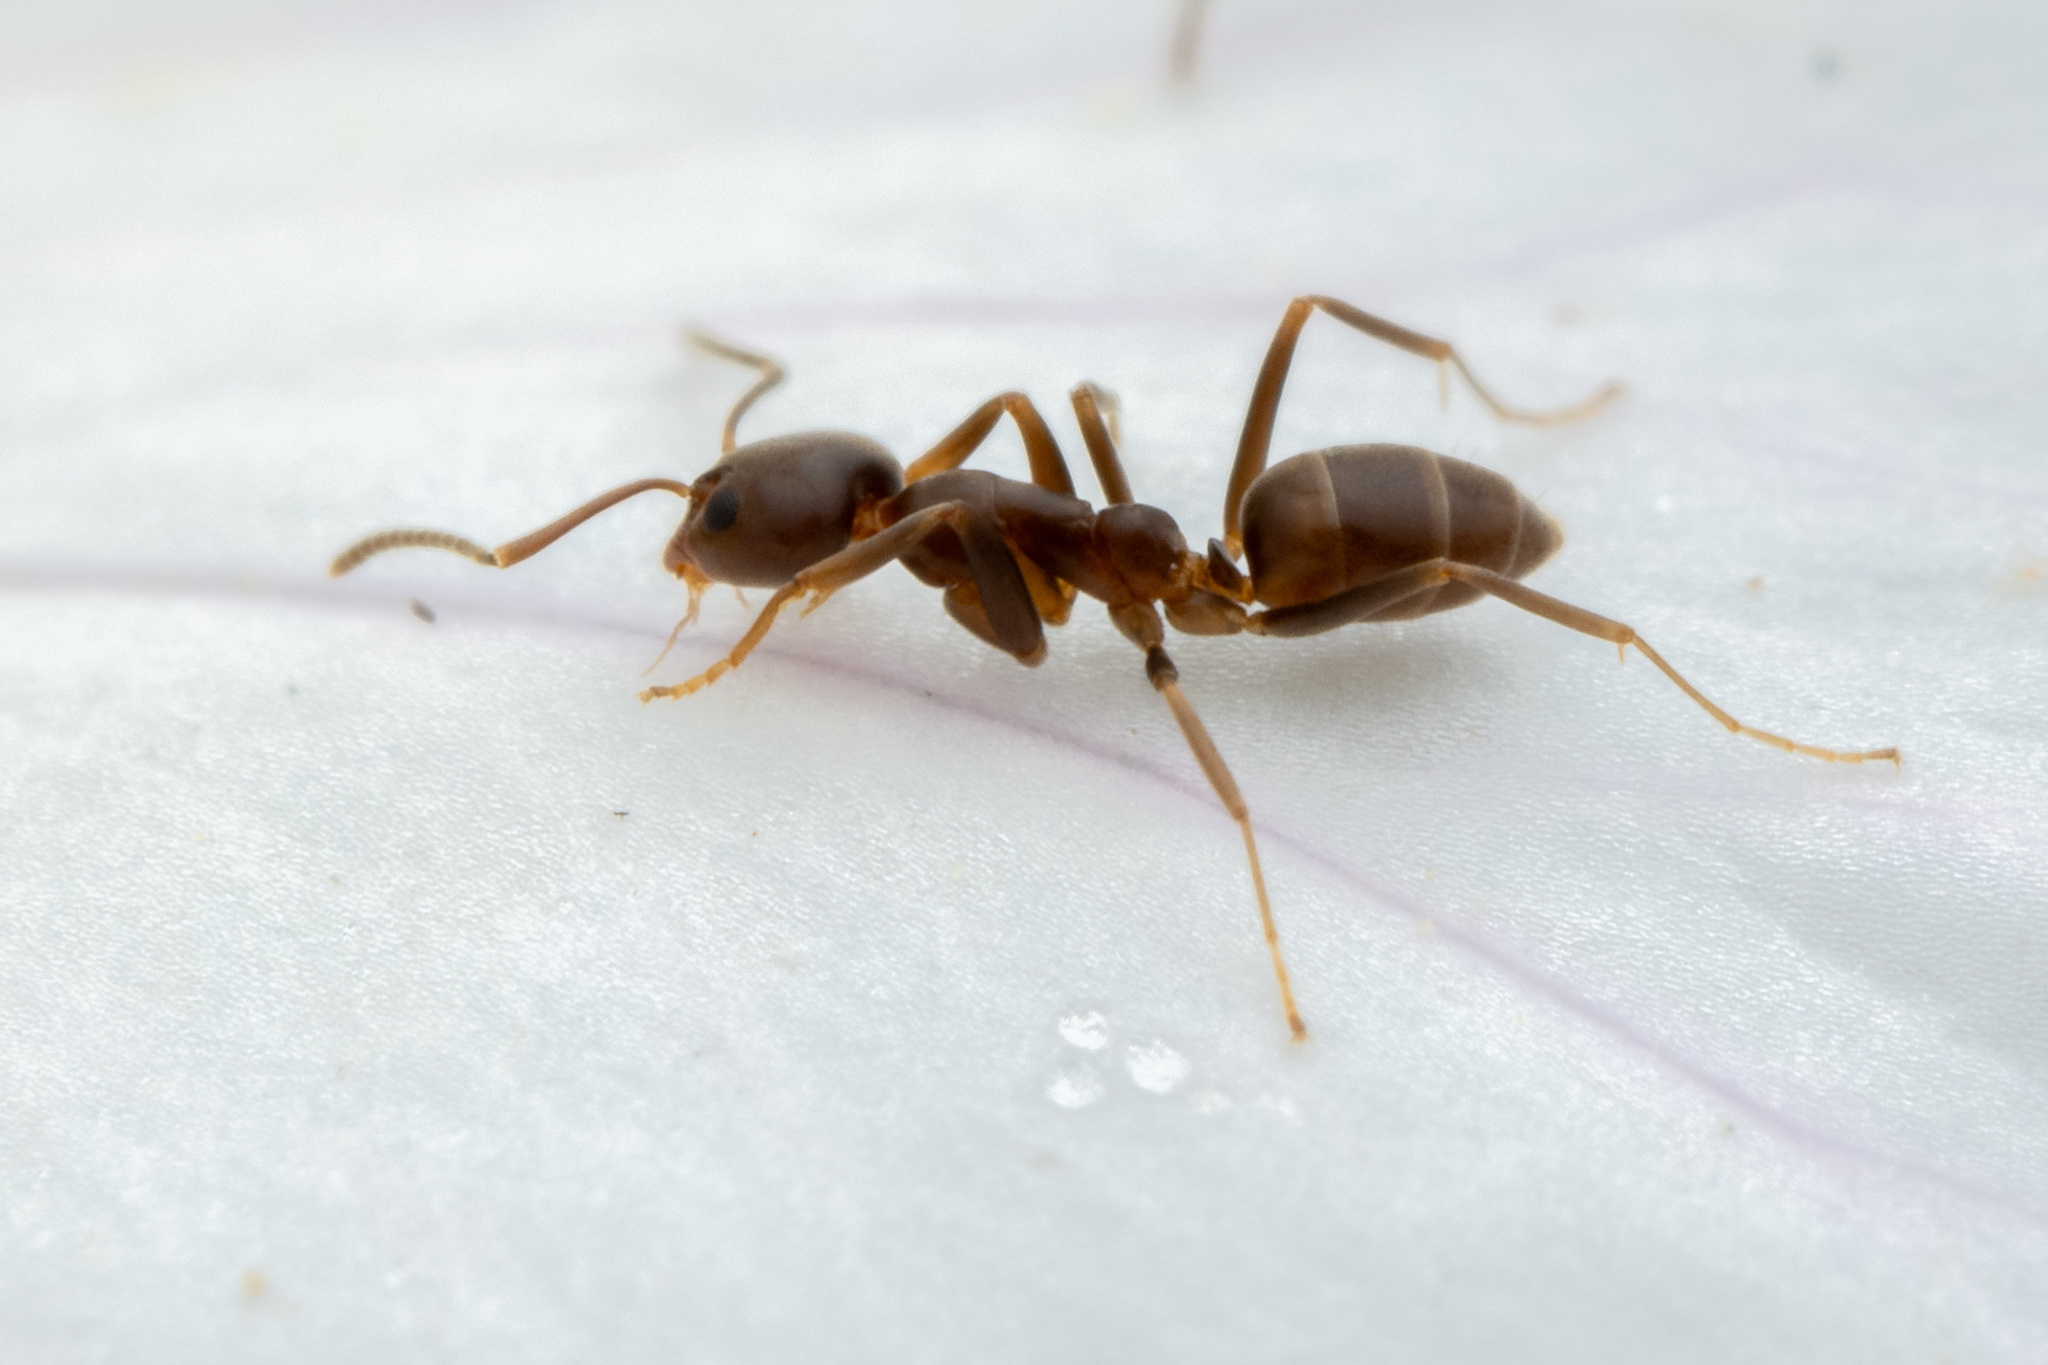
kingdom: Animalia
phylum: Arthropoda
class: Insecta
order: Hymenoptera
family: Formicidae
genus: Linepithema
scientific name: Linepithema humile
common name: Argentine ant
